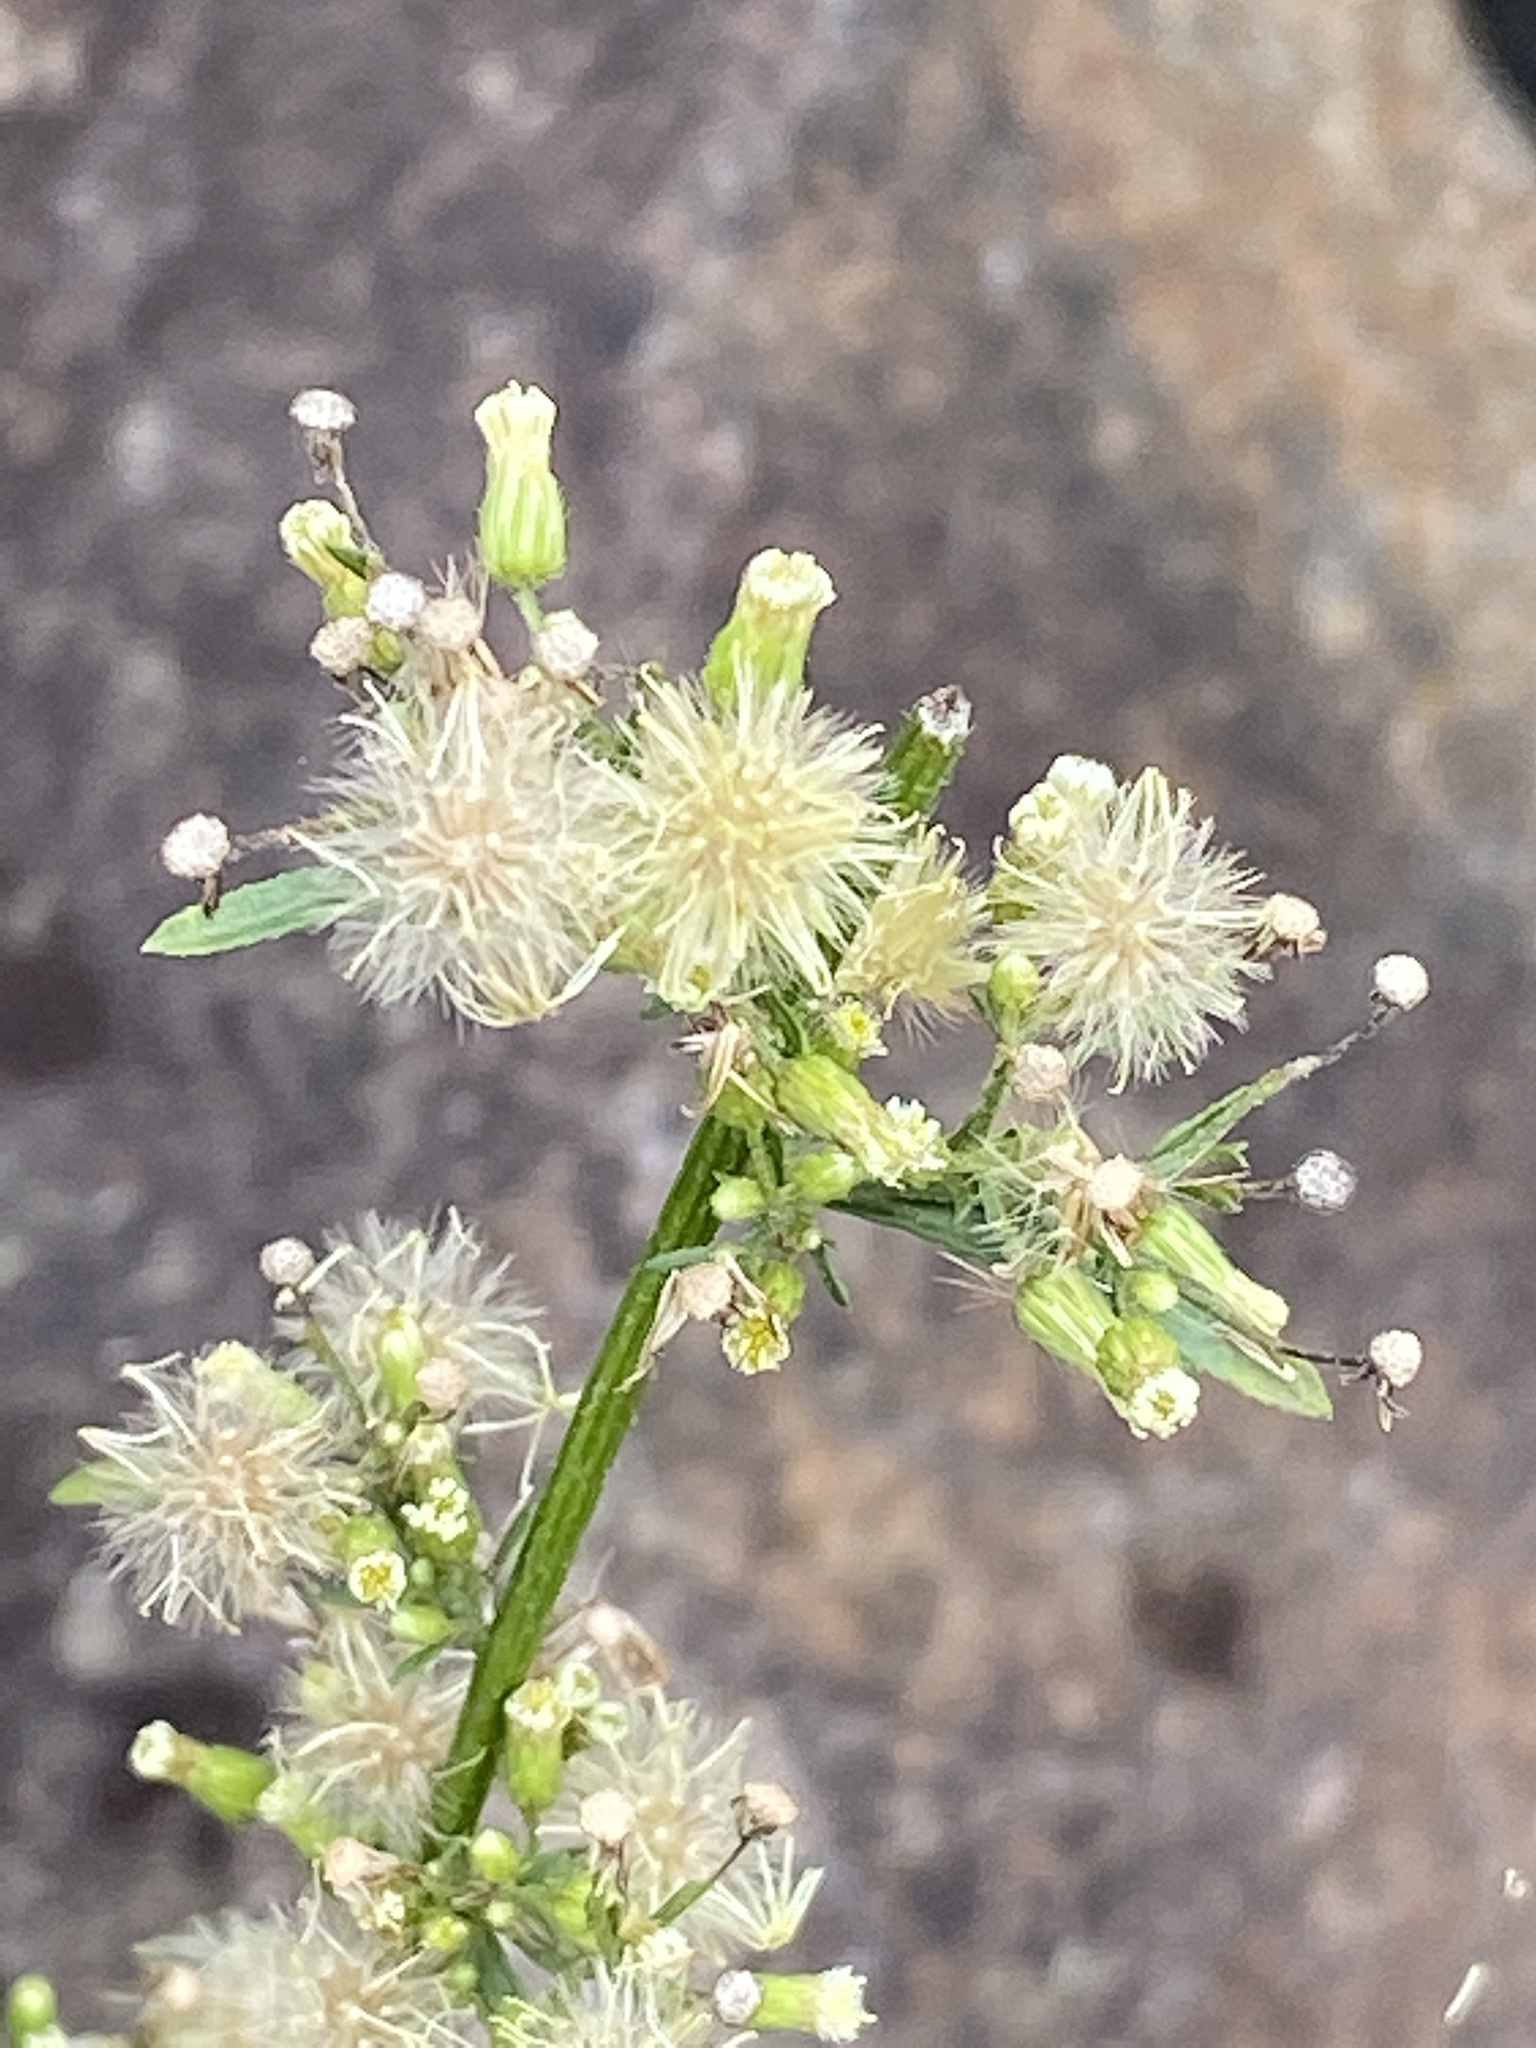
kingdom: Plantae
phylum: Tracheophyta
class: Magnoliopsida
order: Asterales
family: Asteraceae
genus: Erigeron
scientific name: Erigeron canadensis
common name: Canadian fleabane
